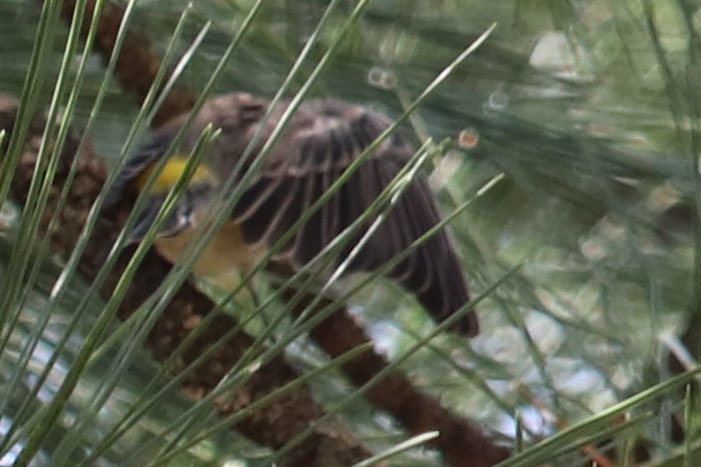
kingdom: Animalia
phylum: Chordata
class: Aves
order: Passeriformes
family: Parulidae
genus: Setophaga
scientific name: Setophaga coronata
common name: Myrtle warbler
